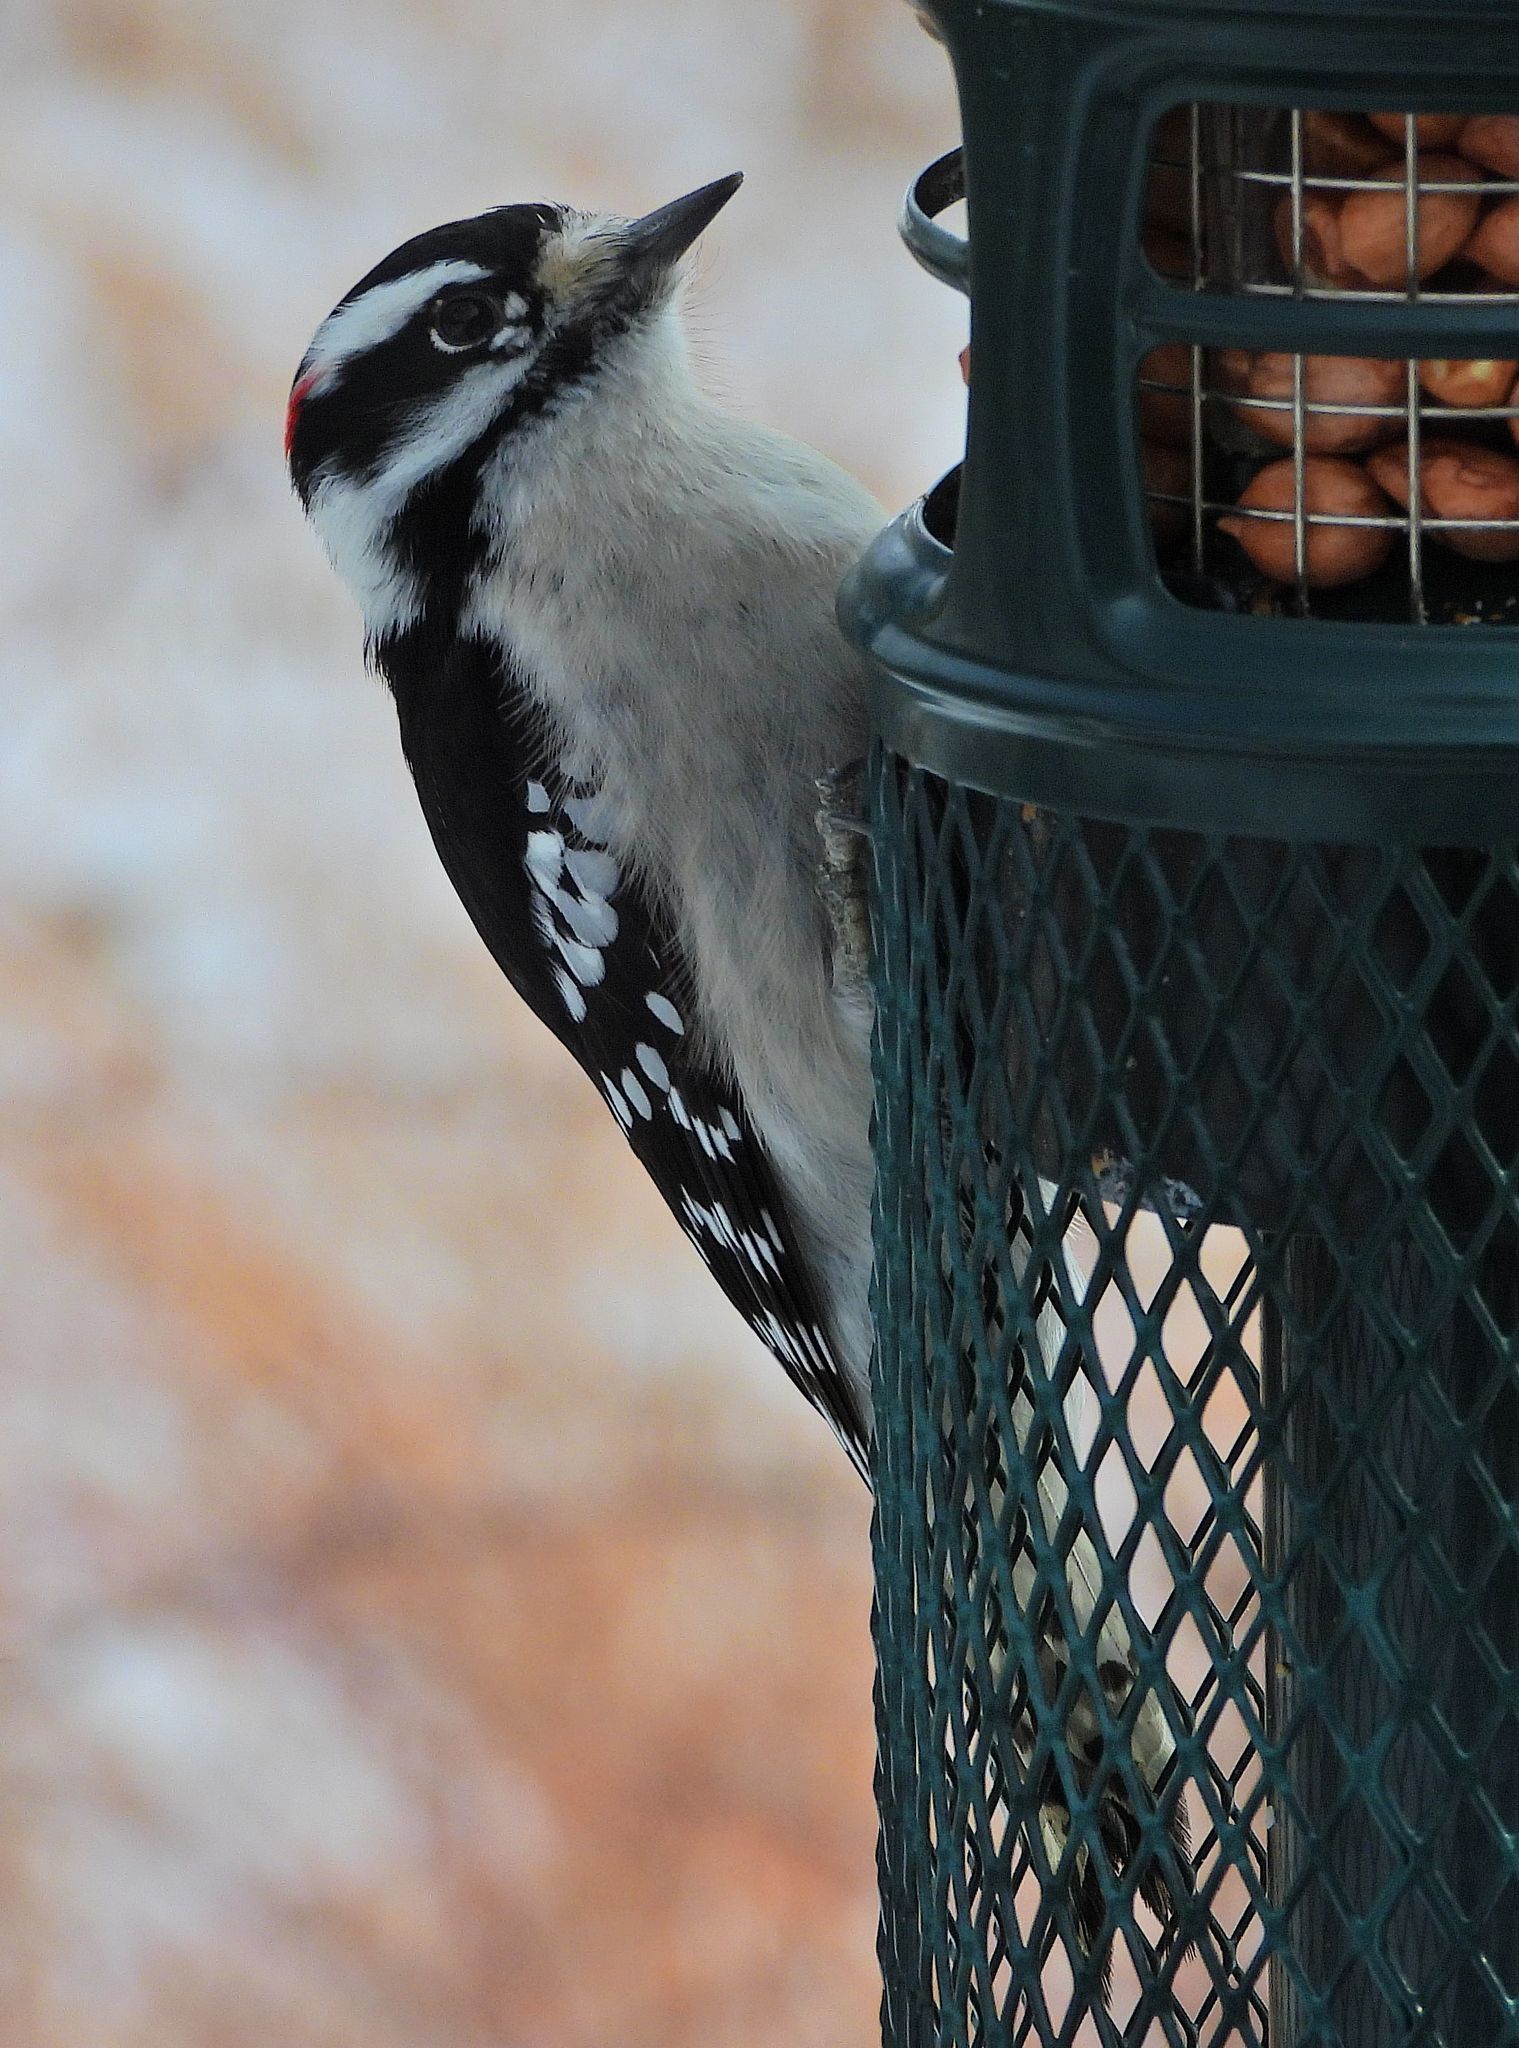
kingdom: Animalia
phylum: Chordata
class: Aves
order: Piciformes
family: Picidae
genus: Dryobates
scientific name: Dryobates pubescens
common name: Downy woodpecker
